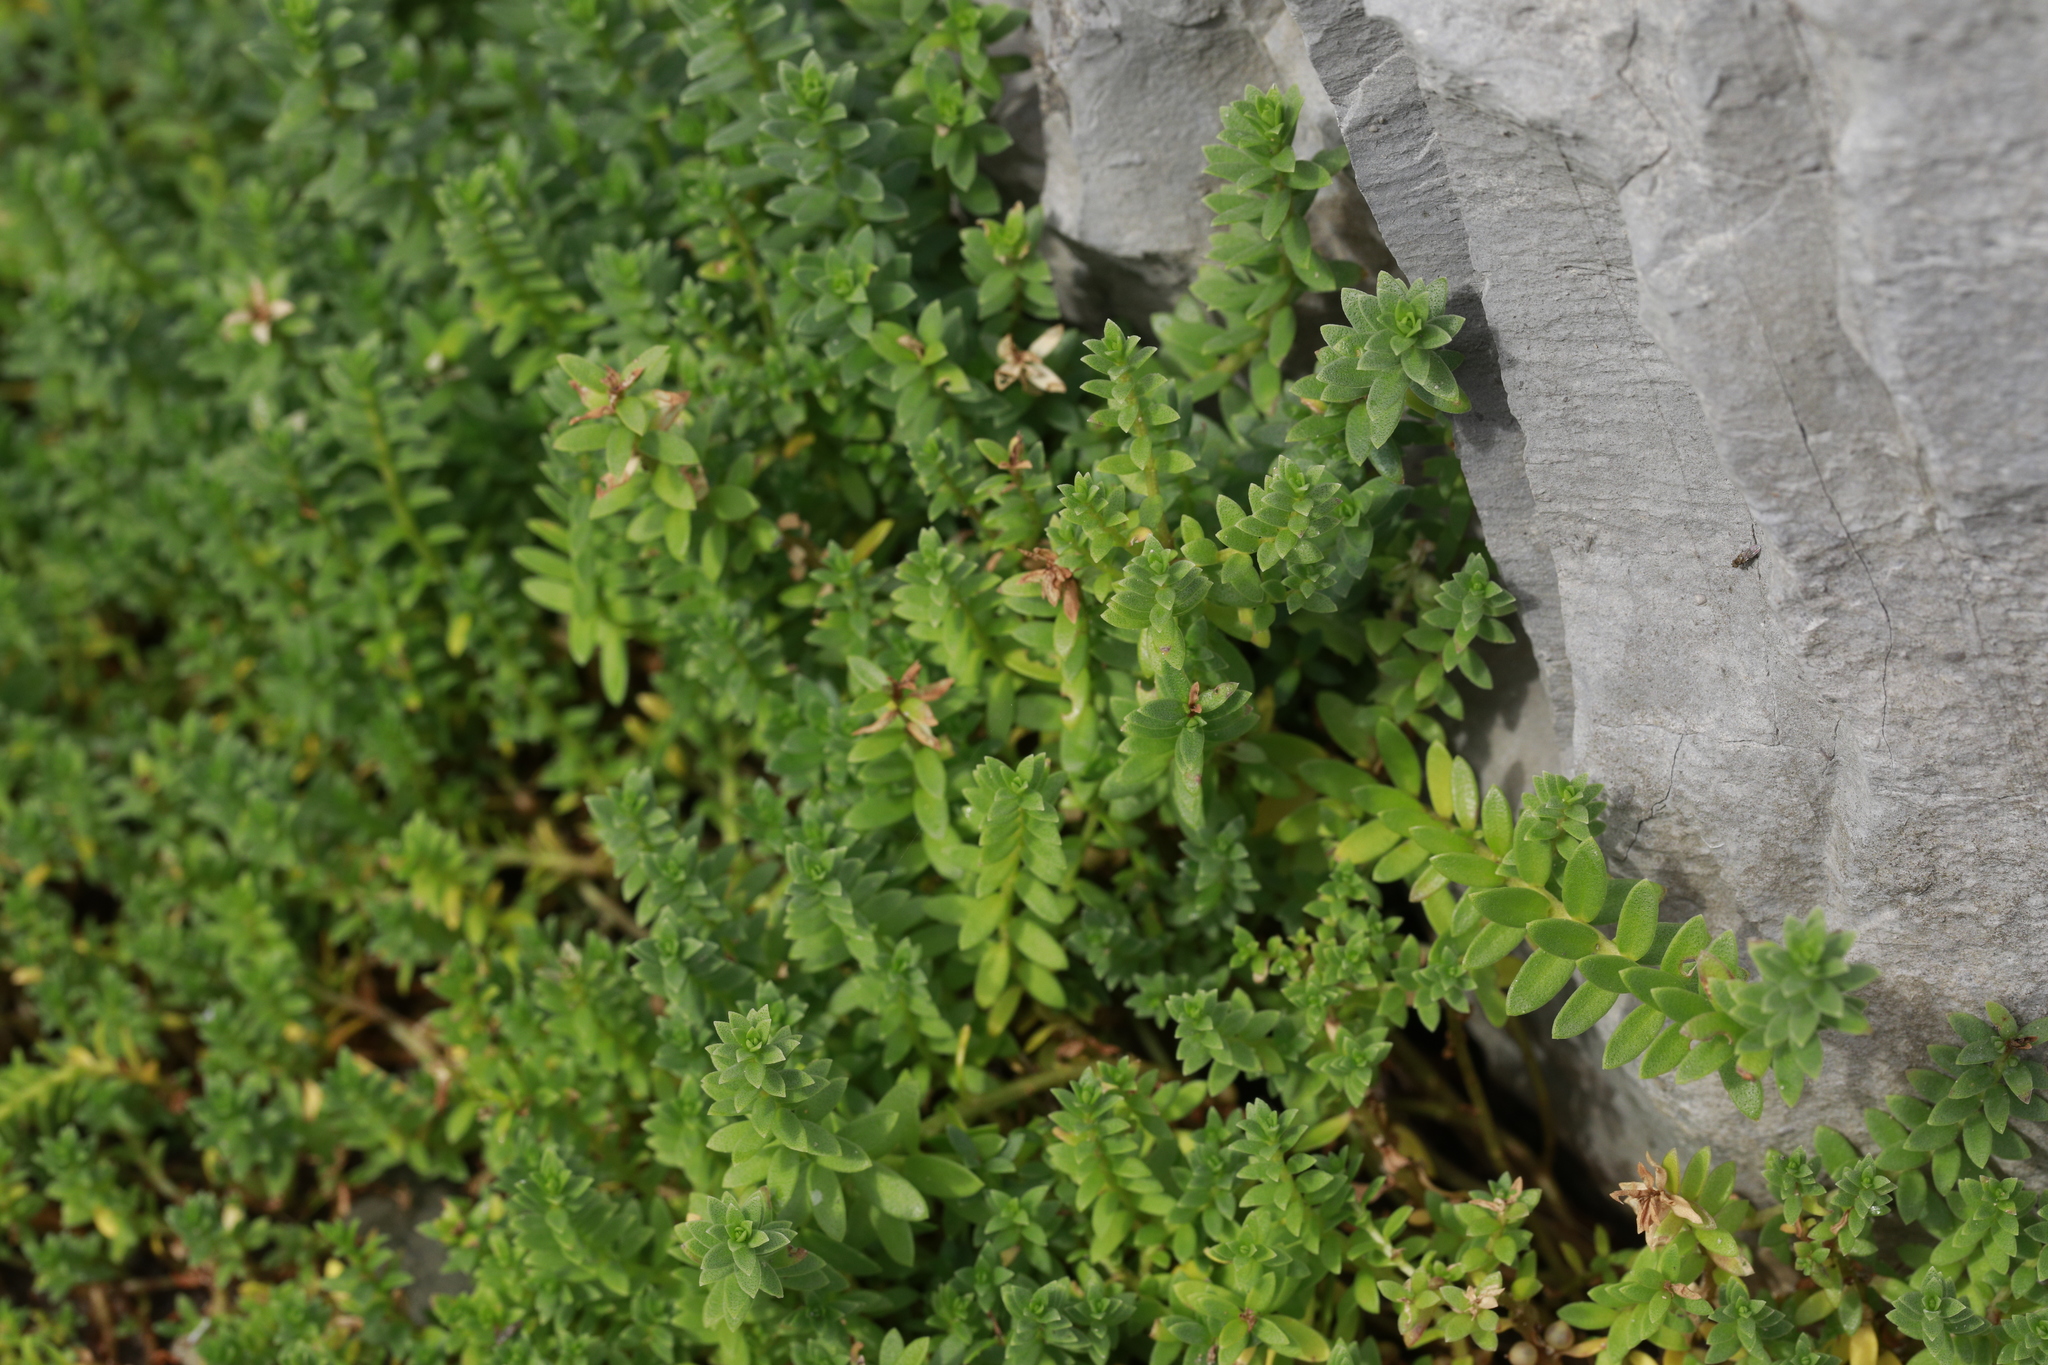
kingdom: Plantae
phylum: Tracheophyta
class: Magnoliopsida
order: Ericales
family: Primulaceae
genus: Lysimachia
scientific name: Lysimachia maritima
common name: Sea milkwort
